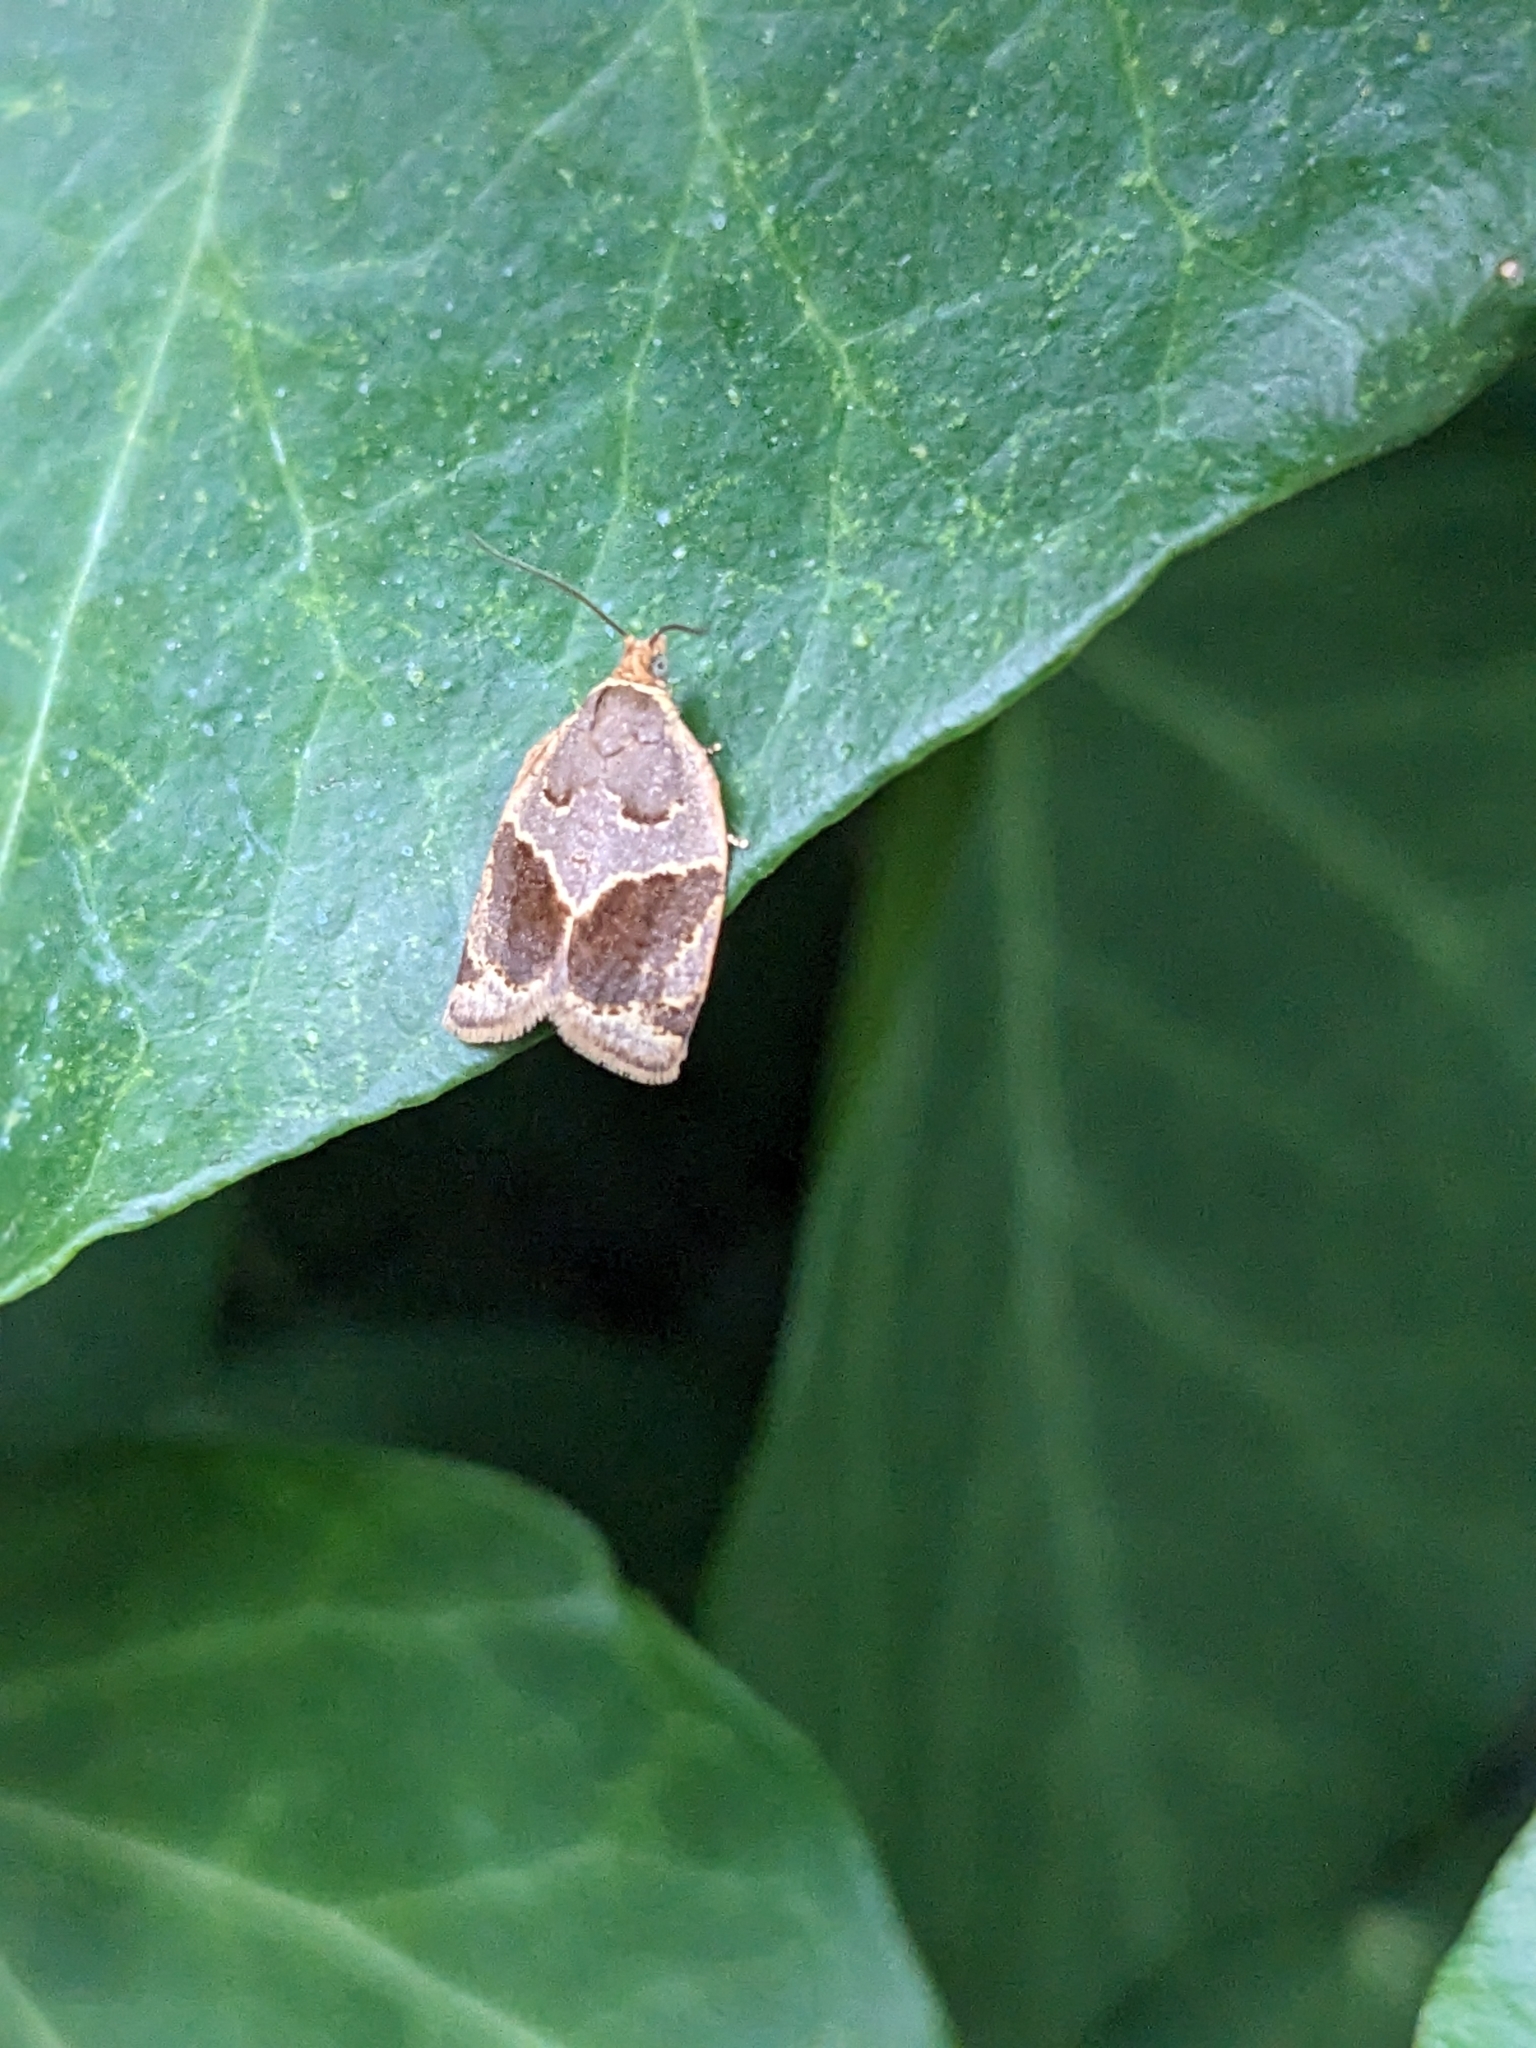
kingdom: Animalia
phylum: Arthropoda
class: Insecta
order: Lepidoptera
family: Tortricidae
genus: Clepsis
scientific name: Clepsis dumicolana
